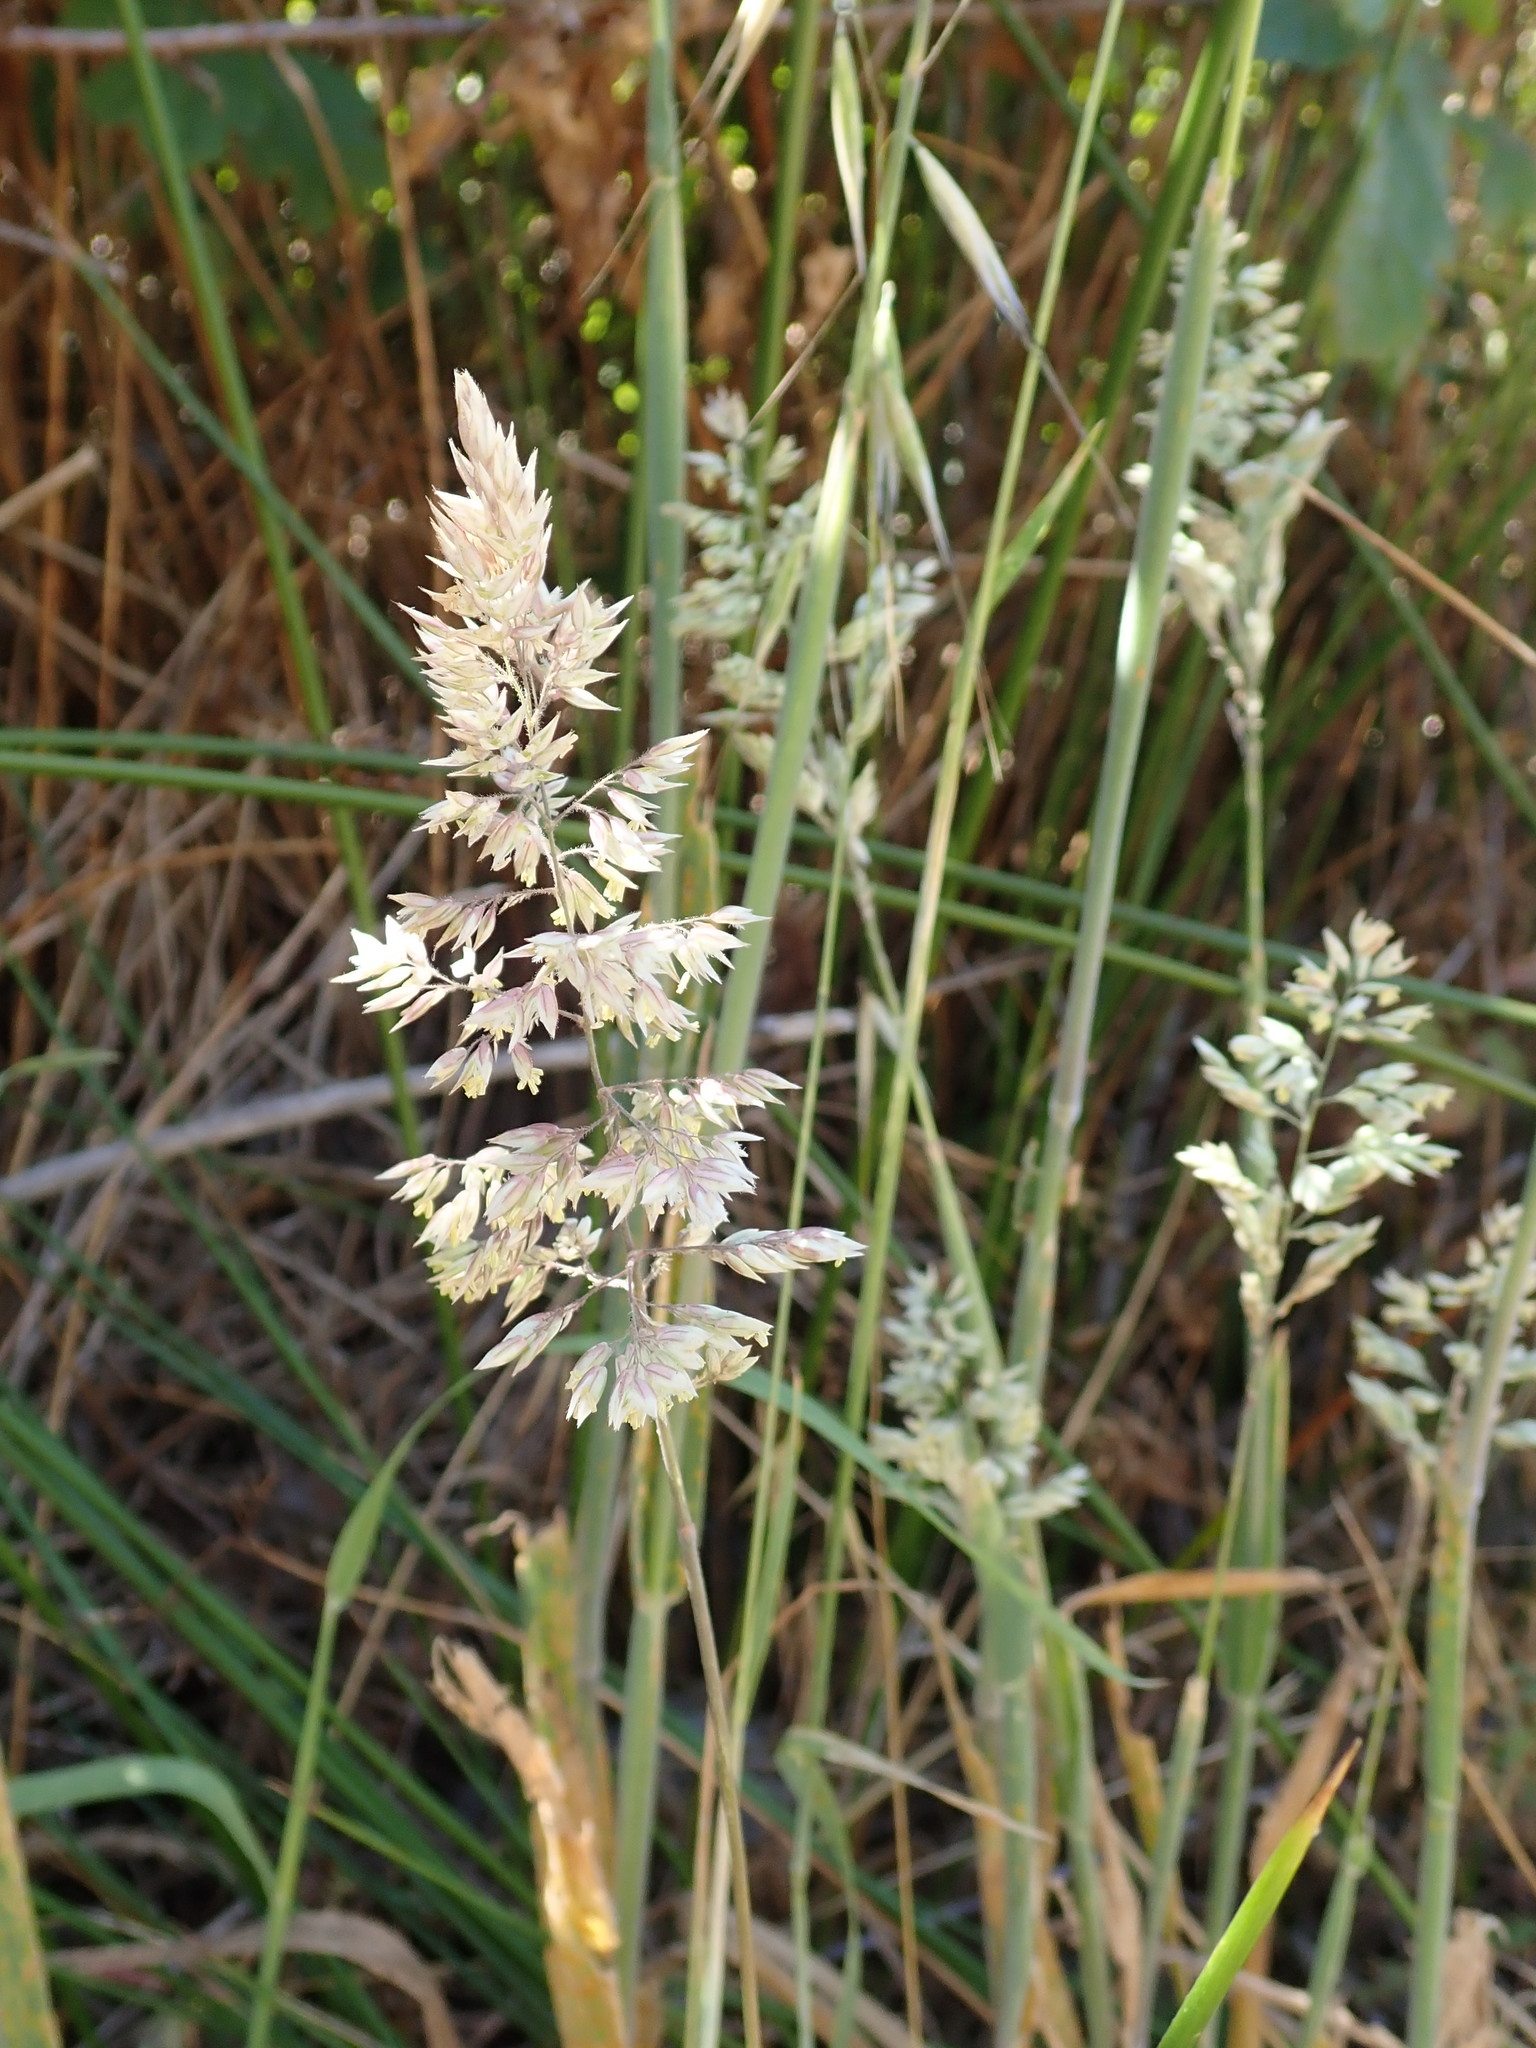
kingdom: Plantae
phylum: Tracheophyta
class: Liliopsida
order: Poales
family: Poaceae
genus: Holcus
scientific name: Holcus lanatus
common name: Yorkshire-fog
